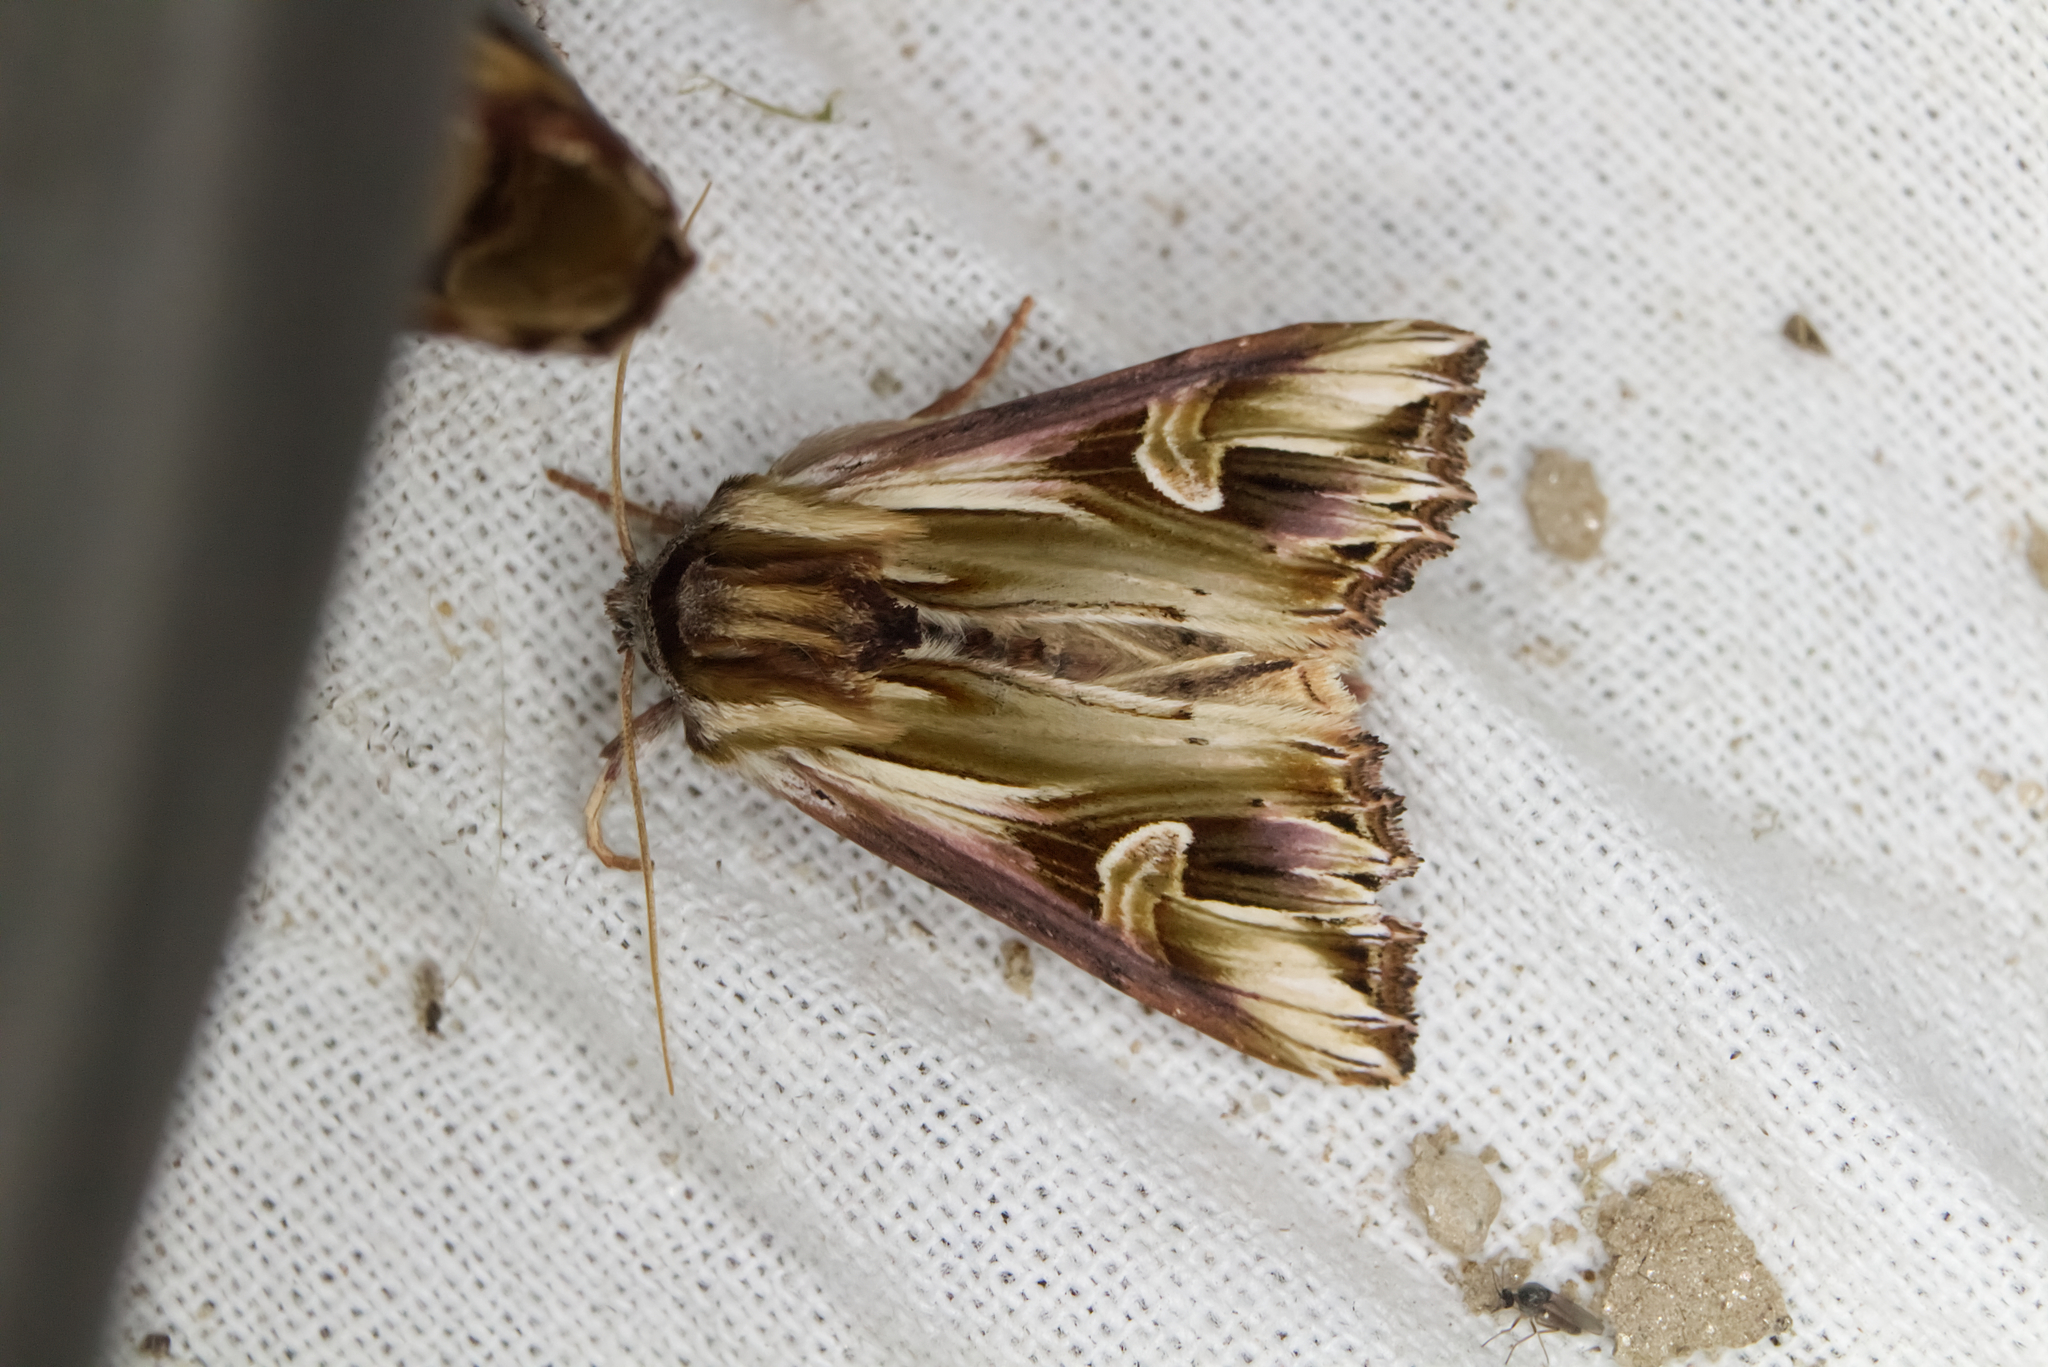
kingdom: Animalia
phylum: Arthropoda
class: Insecta
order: Lepidoptera
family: Noctuidae
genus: Actinotia
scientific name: Actinotia polyodon
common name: Purple cloud
